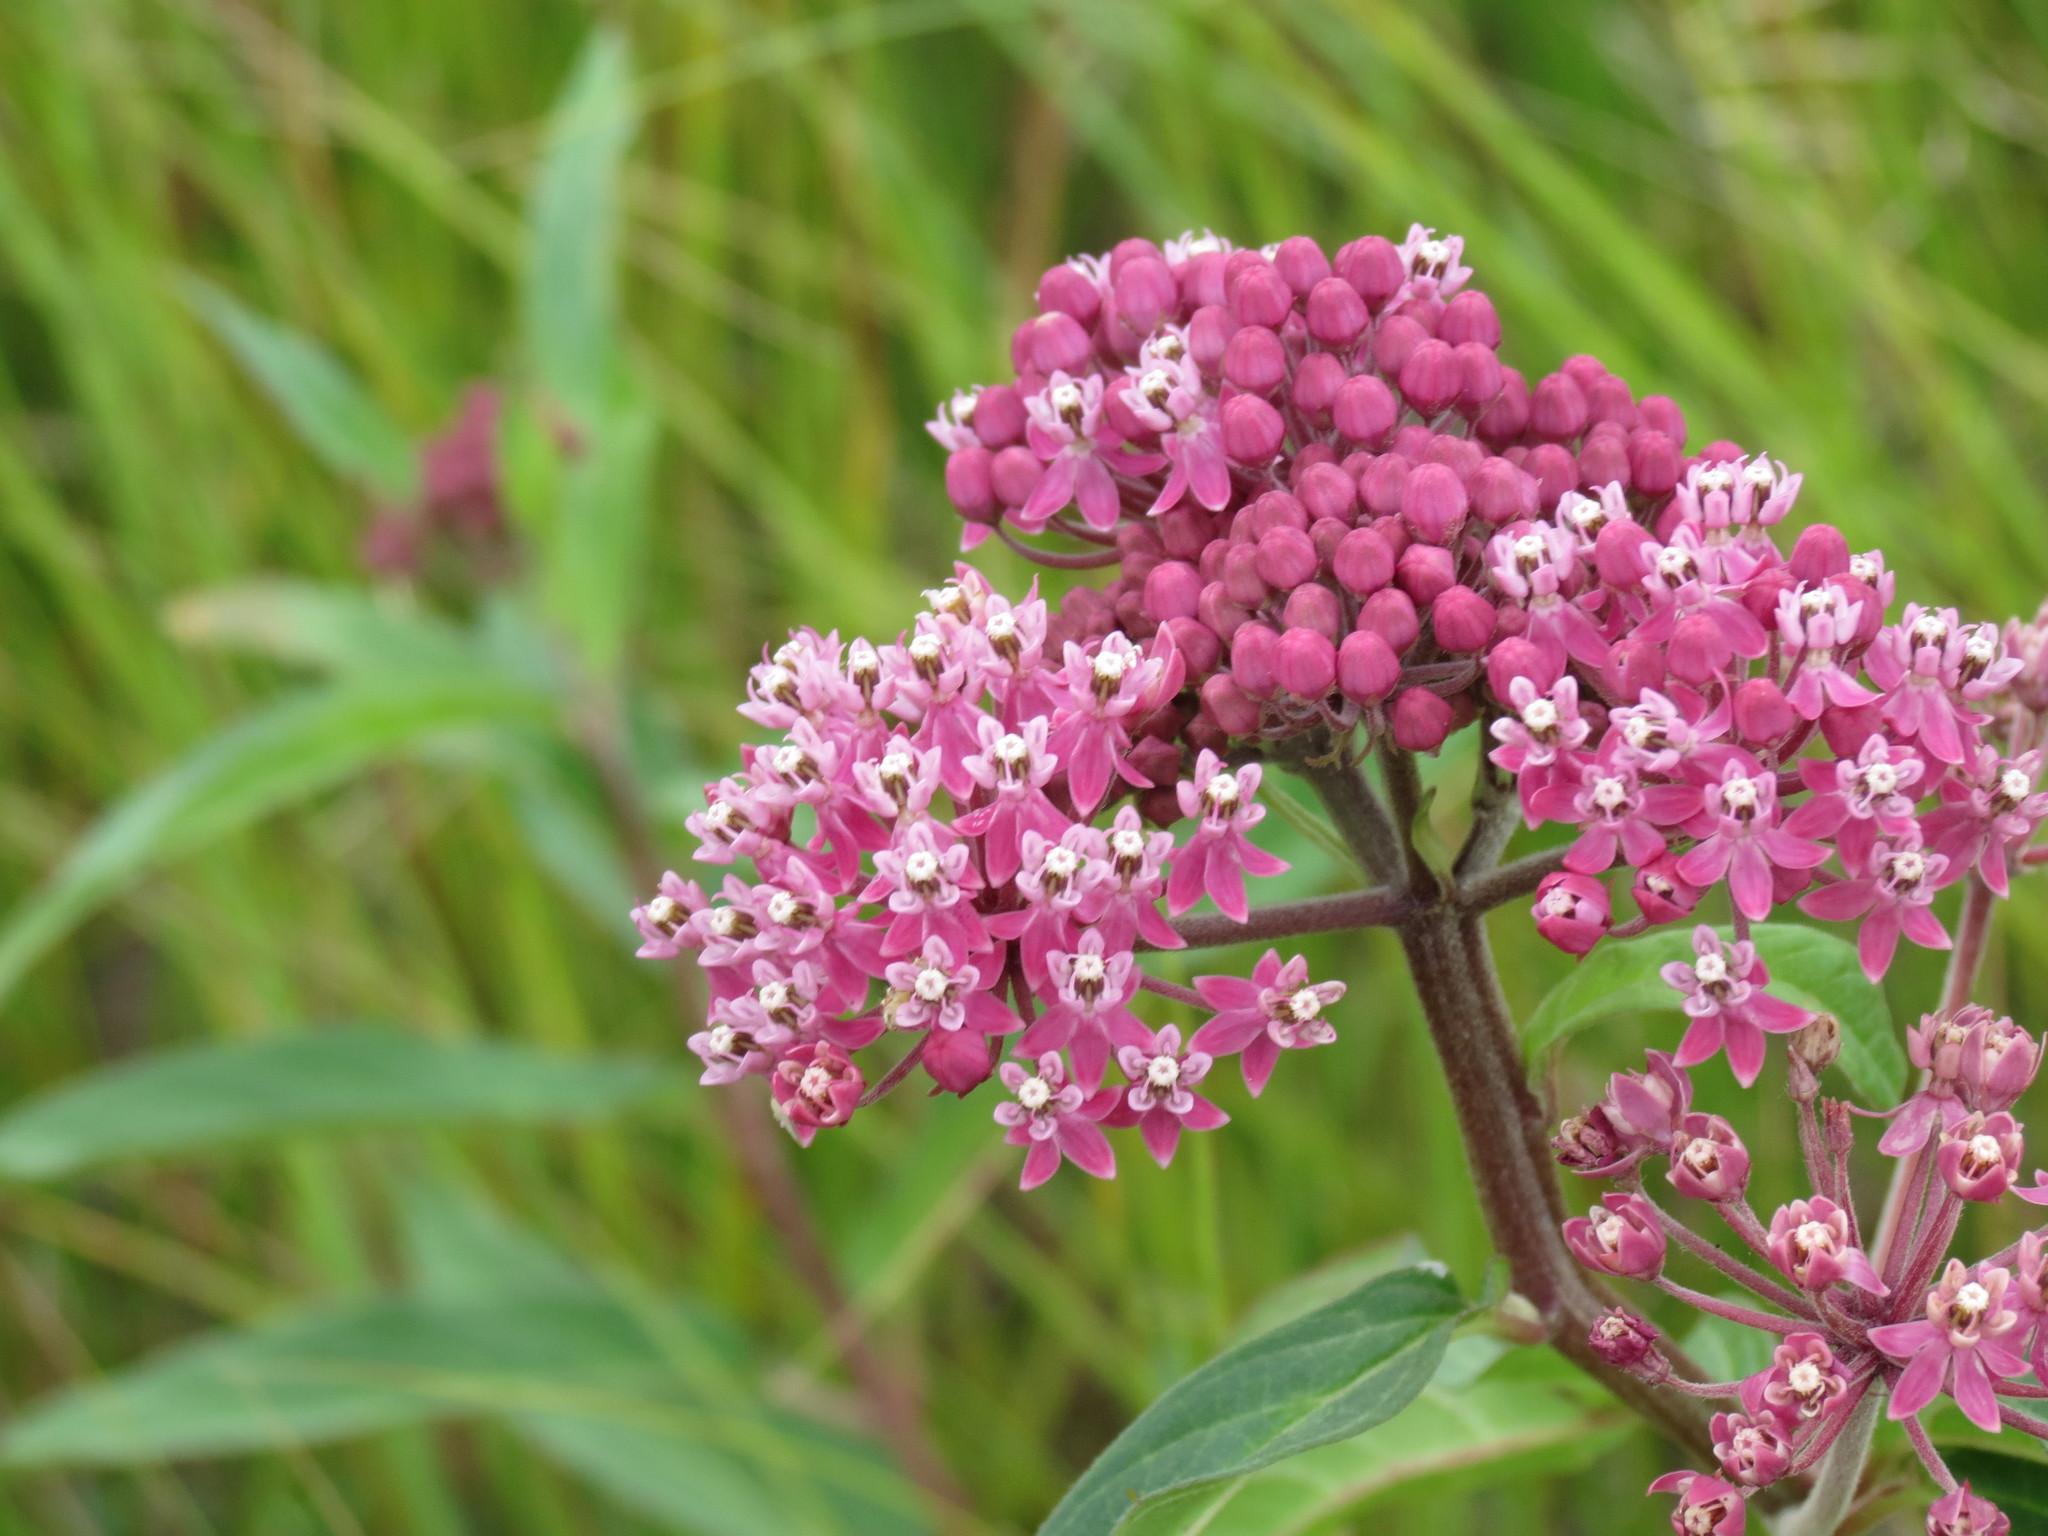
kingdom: Plantae
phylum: Tracheophyta
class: Magnoliopsida
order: Gentianales
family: Apocynaceae
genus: Asclepias
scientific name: Asclepias incarnata
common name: Swamp milkweed
